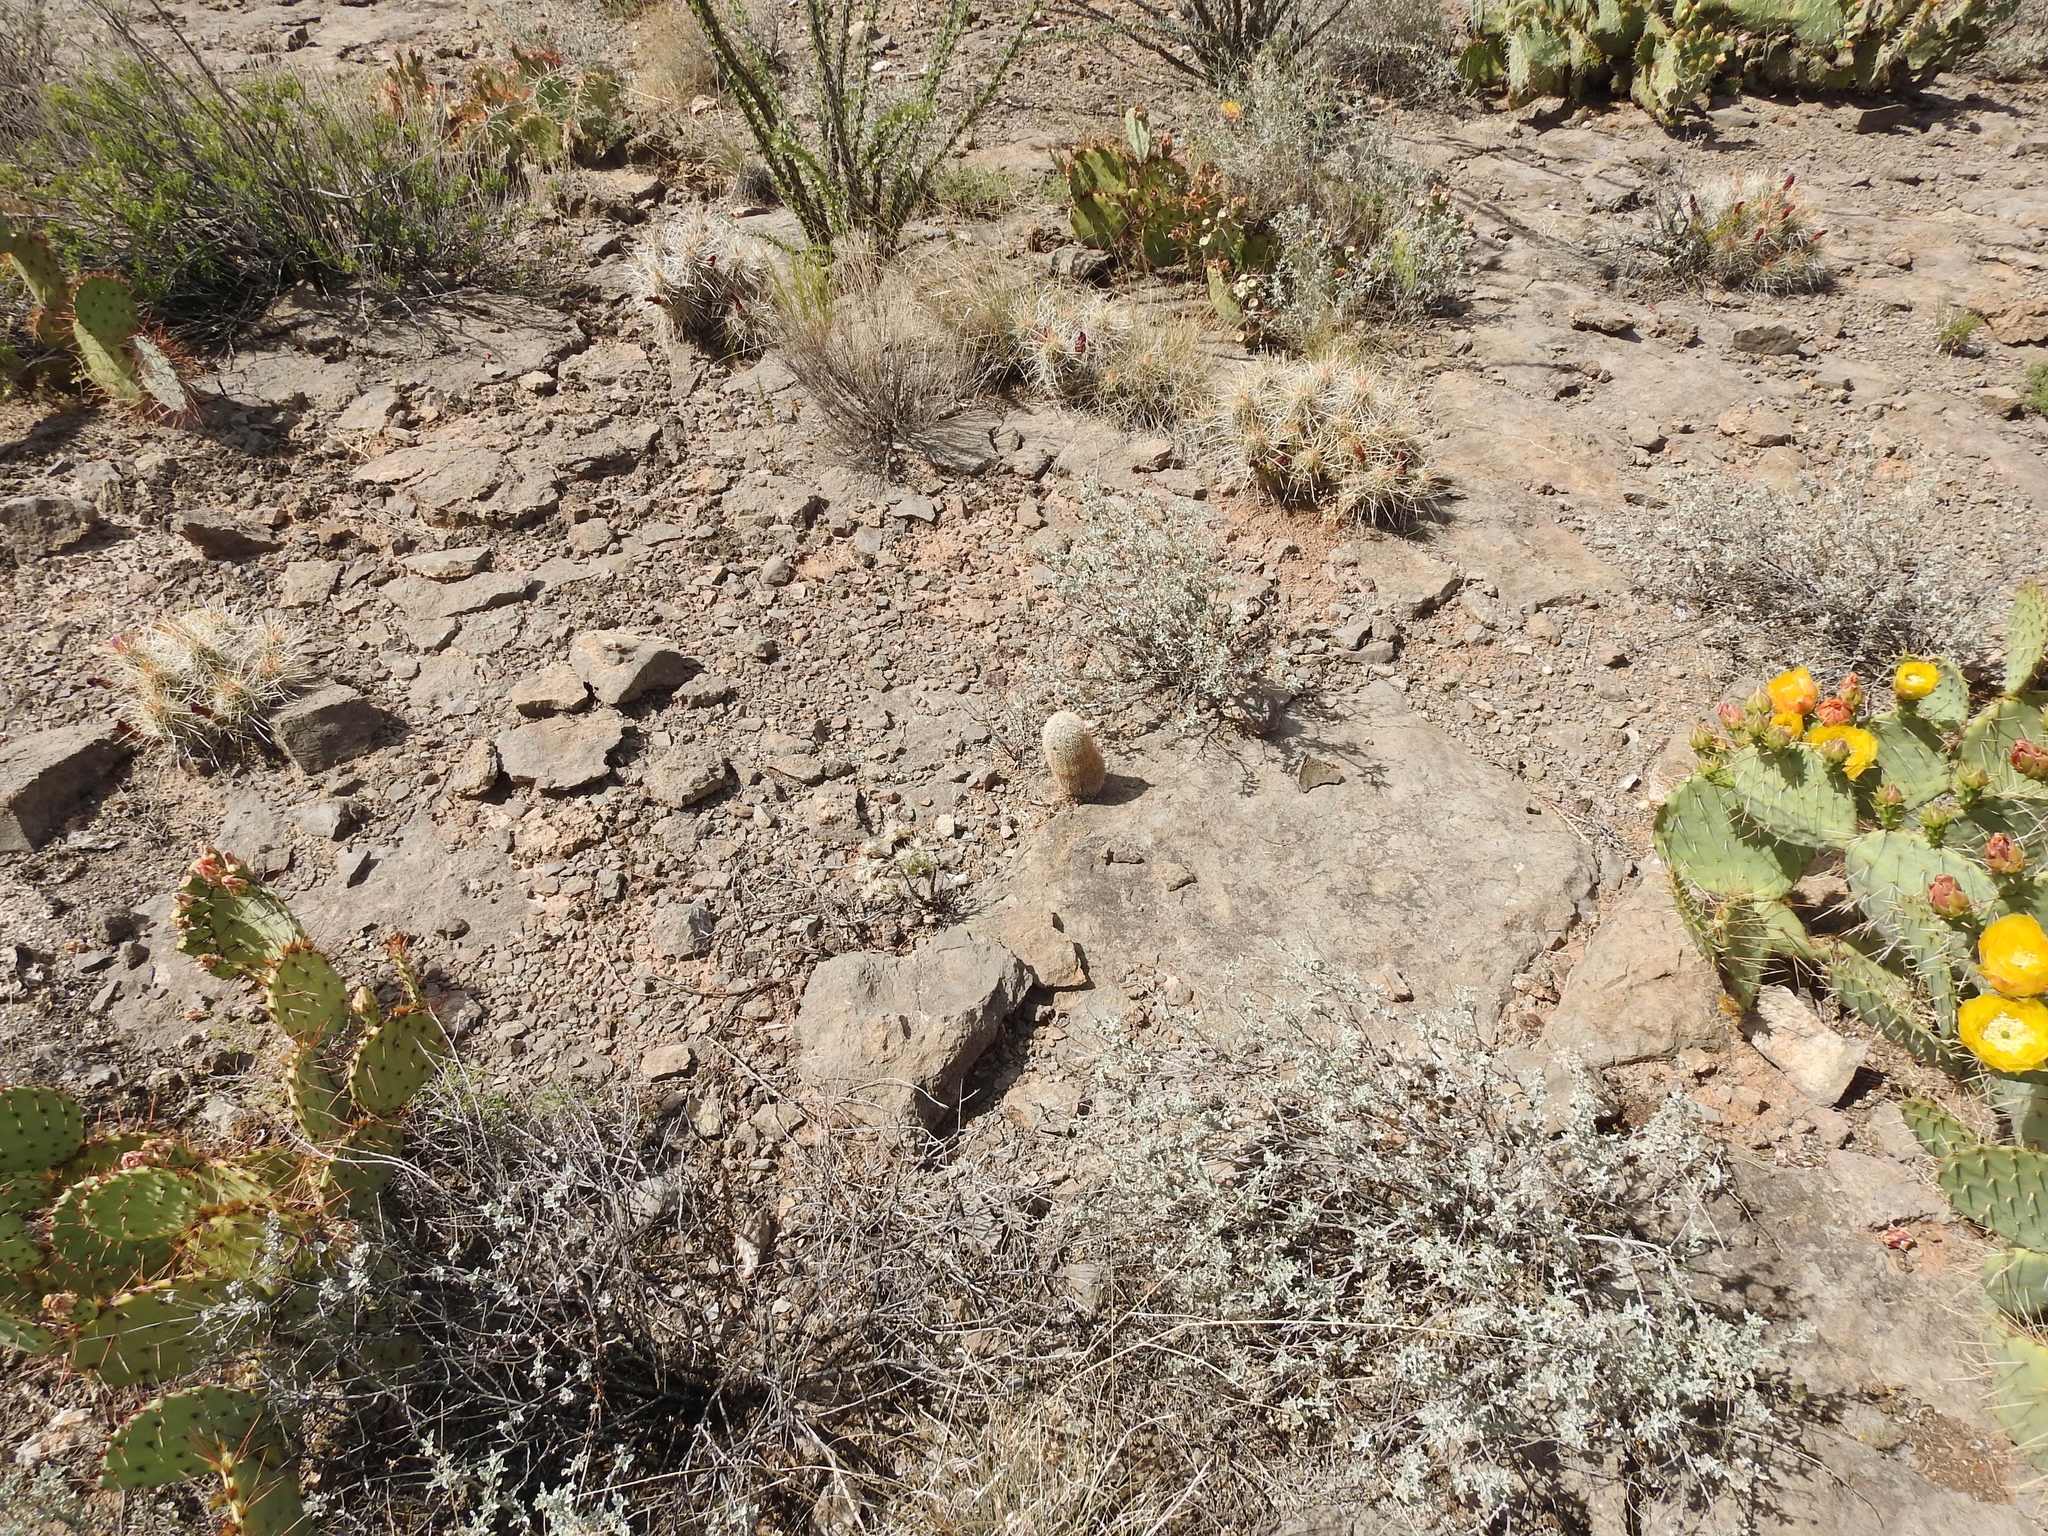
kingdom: Plantae
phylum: Tracheophyta
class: Magnoliopsida
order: Caryophyllales
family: Cactaceae
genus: Echinocereus
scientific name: Echinocereus dasyacanthus
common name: Spiny hedgehog cactus
